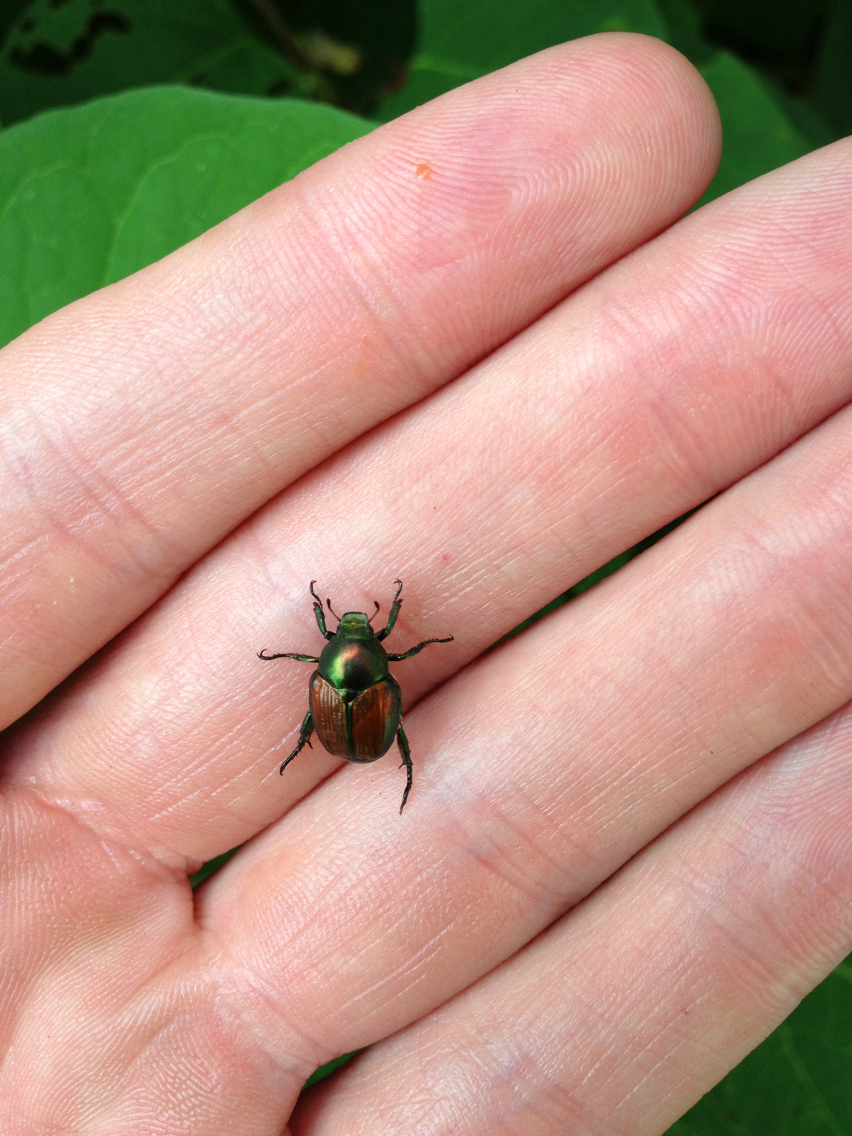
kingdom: Animalia
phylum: Arthropoda
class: Insecta
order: Coleoptera
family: Scarabaeidae
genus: Popillia
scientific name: Popillia japonica
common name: Japanese beetle
